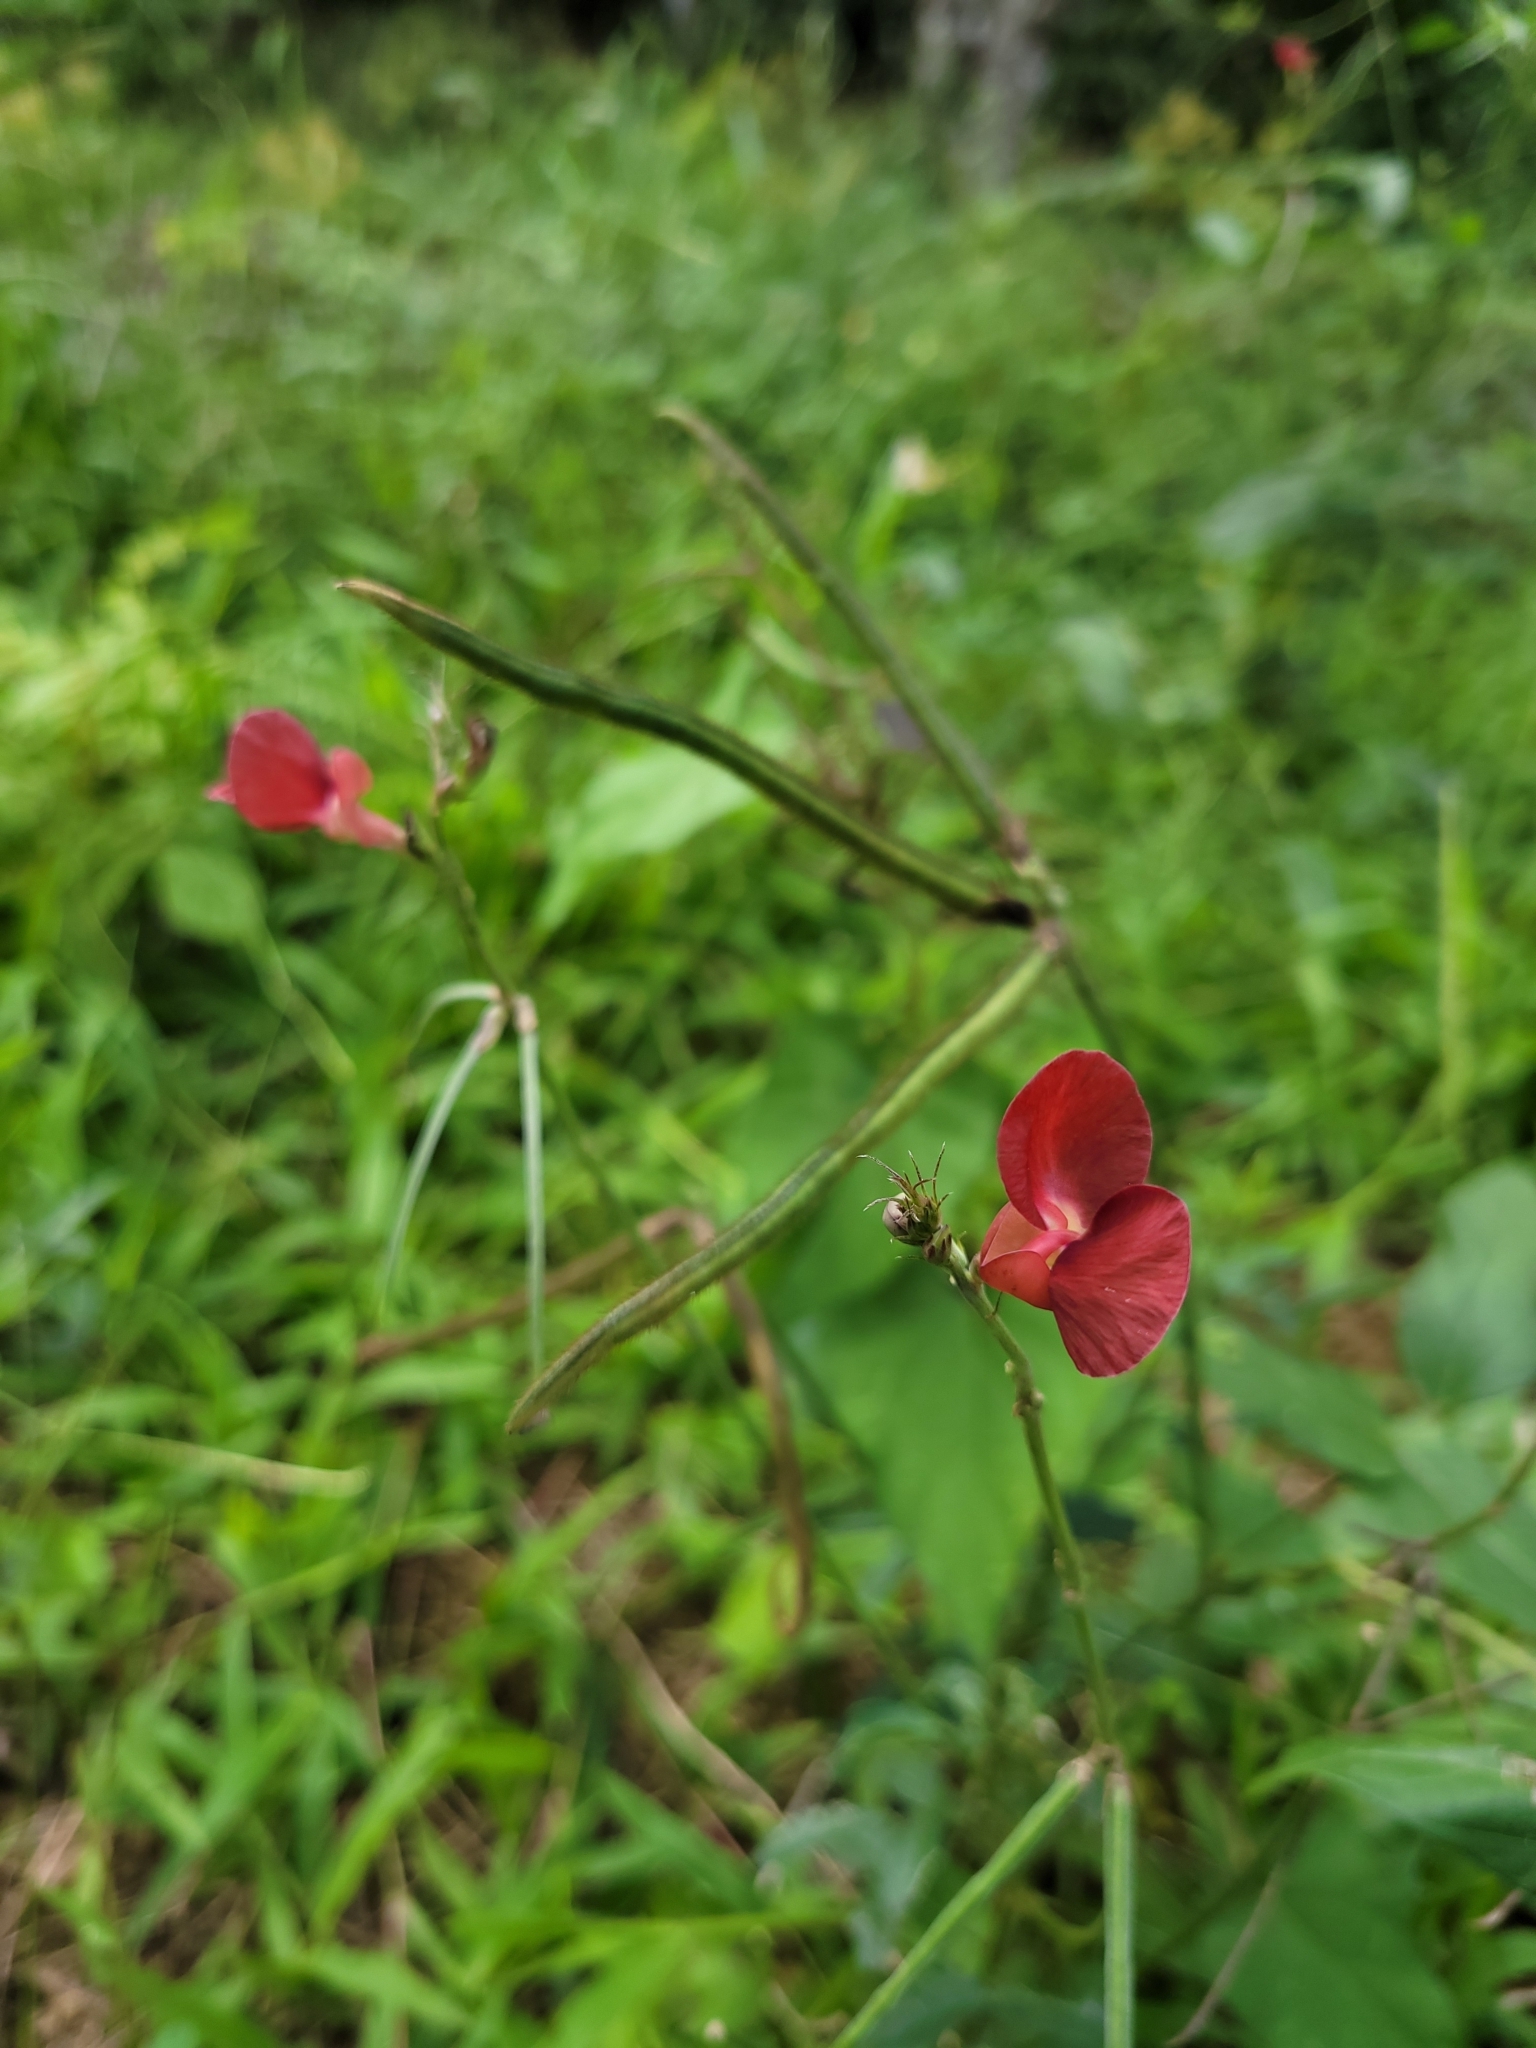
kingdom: Plantae
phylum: Tracheophyta
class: Magnoliopsida
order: Fabales
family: Fabaceae
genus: Macroptilium
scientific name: Macroptilium lathyroides
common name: Wild bushbean
